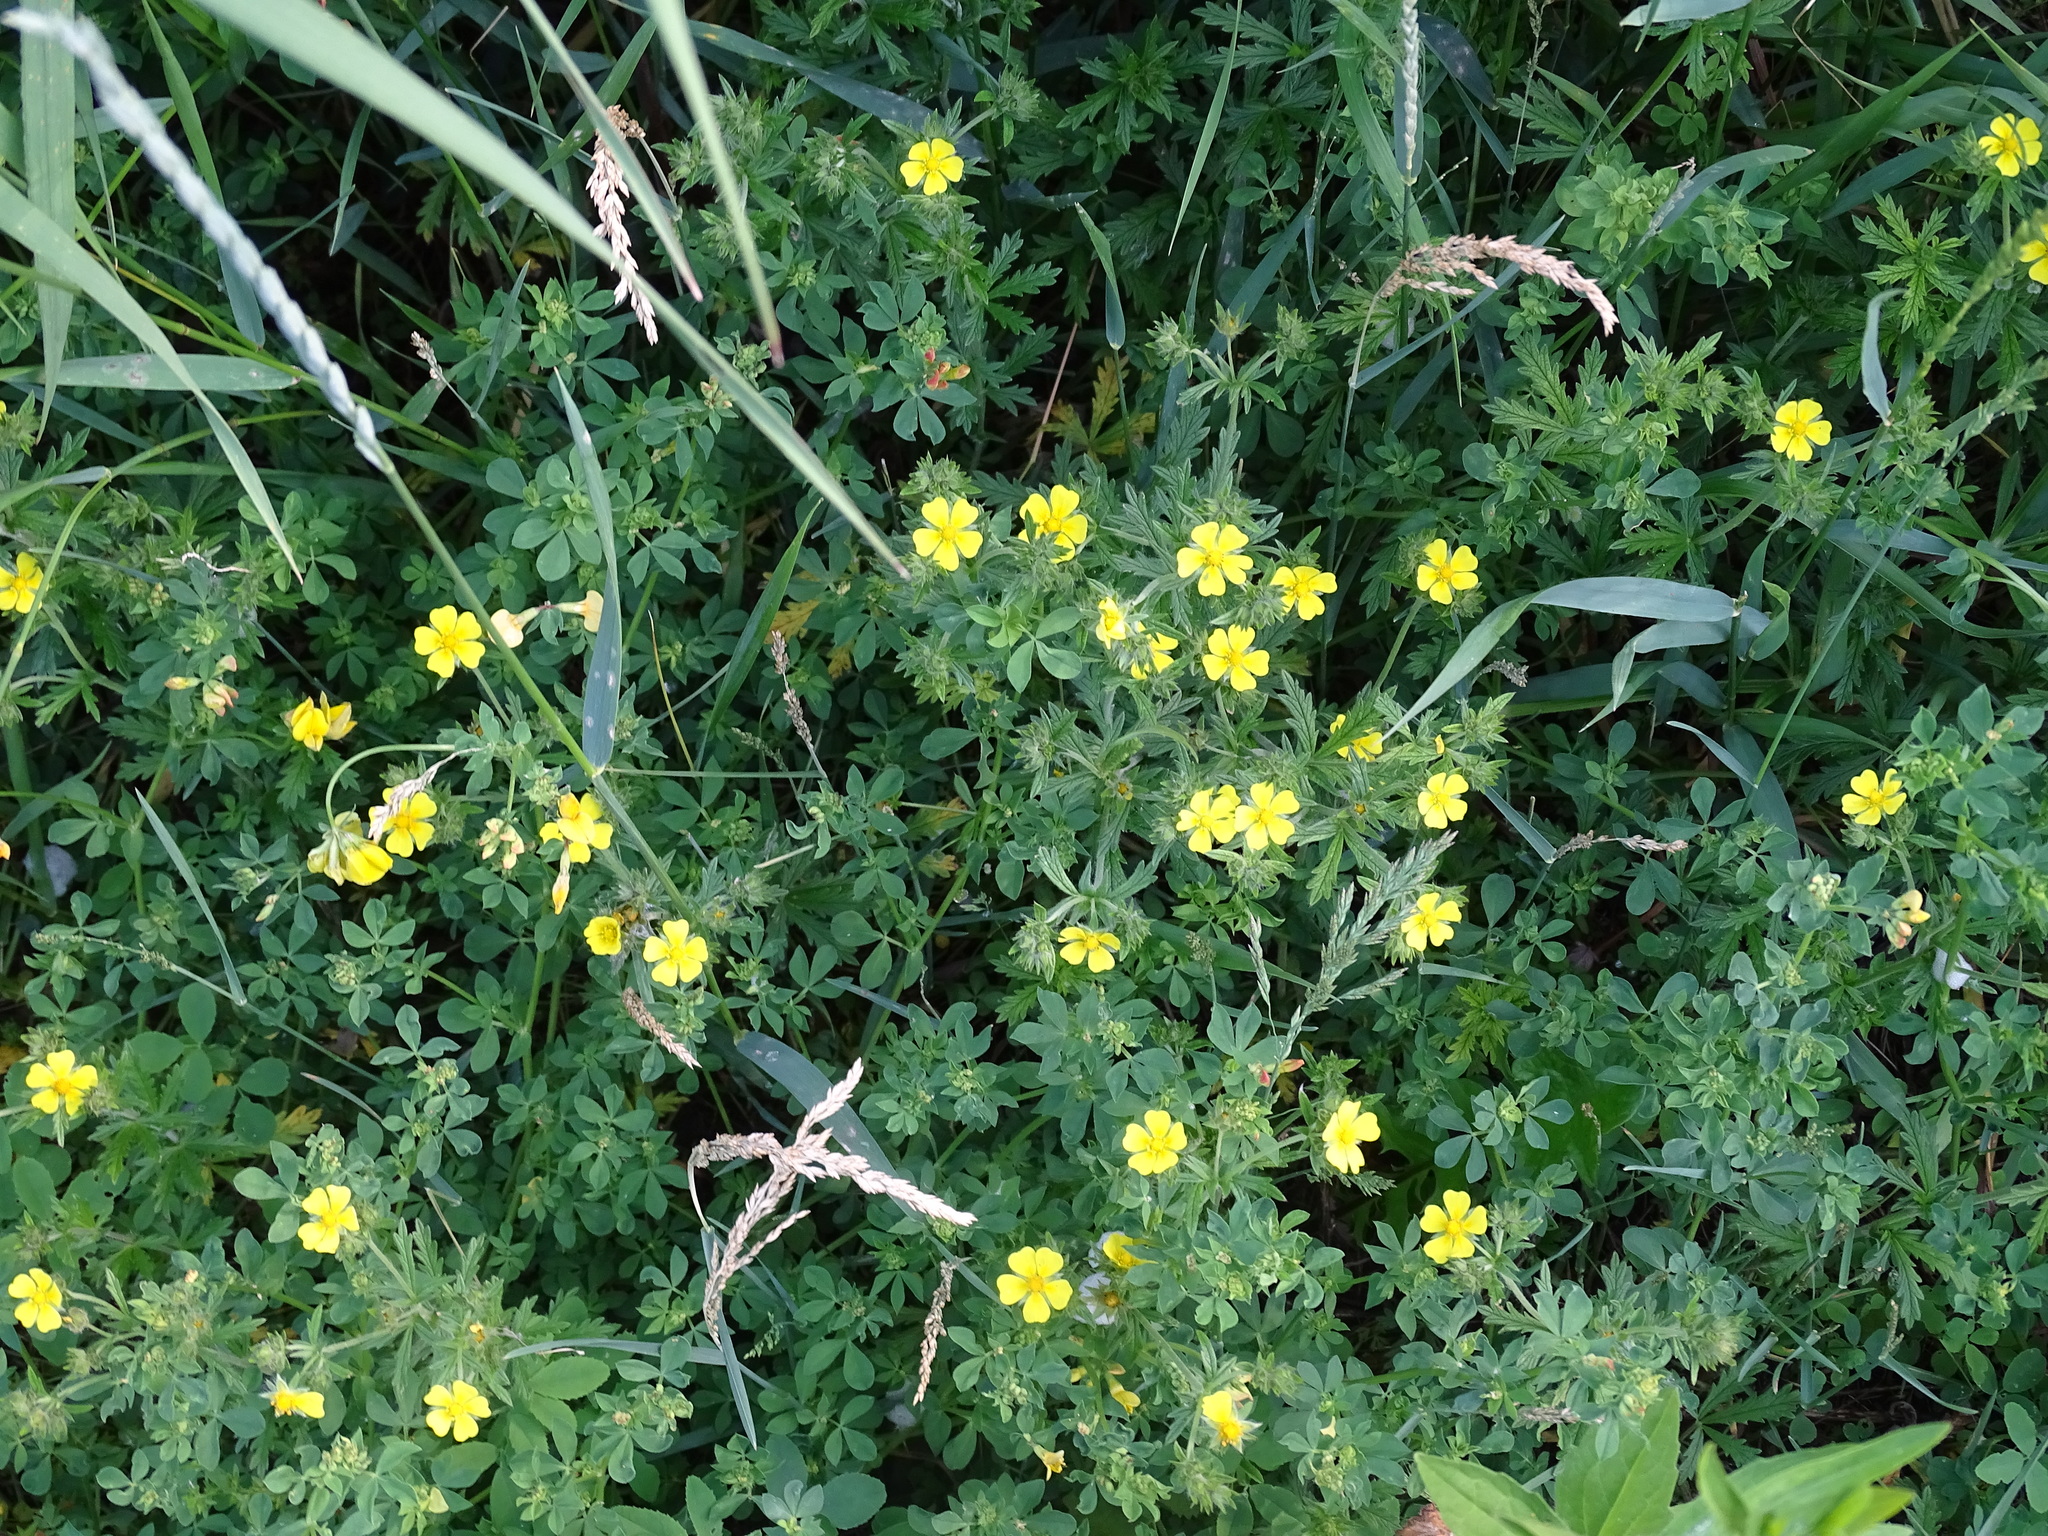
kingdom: Plantae
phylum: Tracheophyta
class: Magnoliopsida
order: Rosales
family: Rosaceae
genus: Potentilla
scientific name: Potentilla argentea
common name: Hoary cinquefoil
